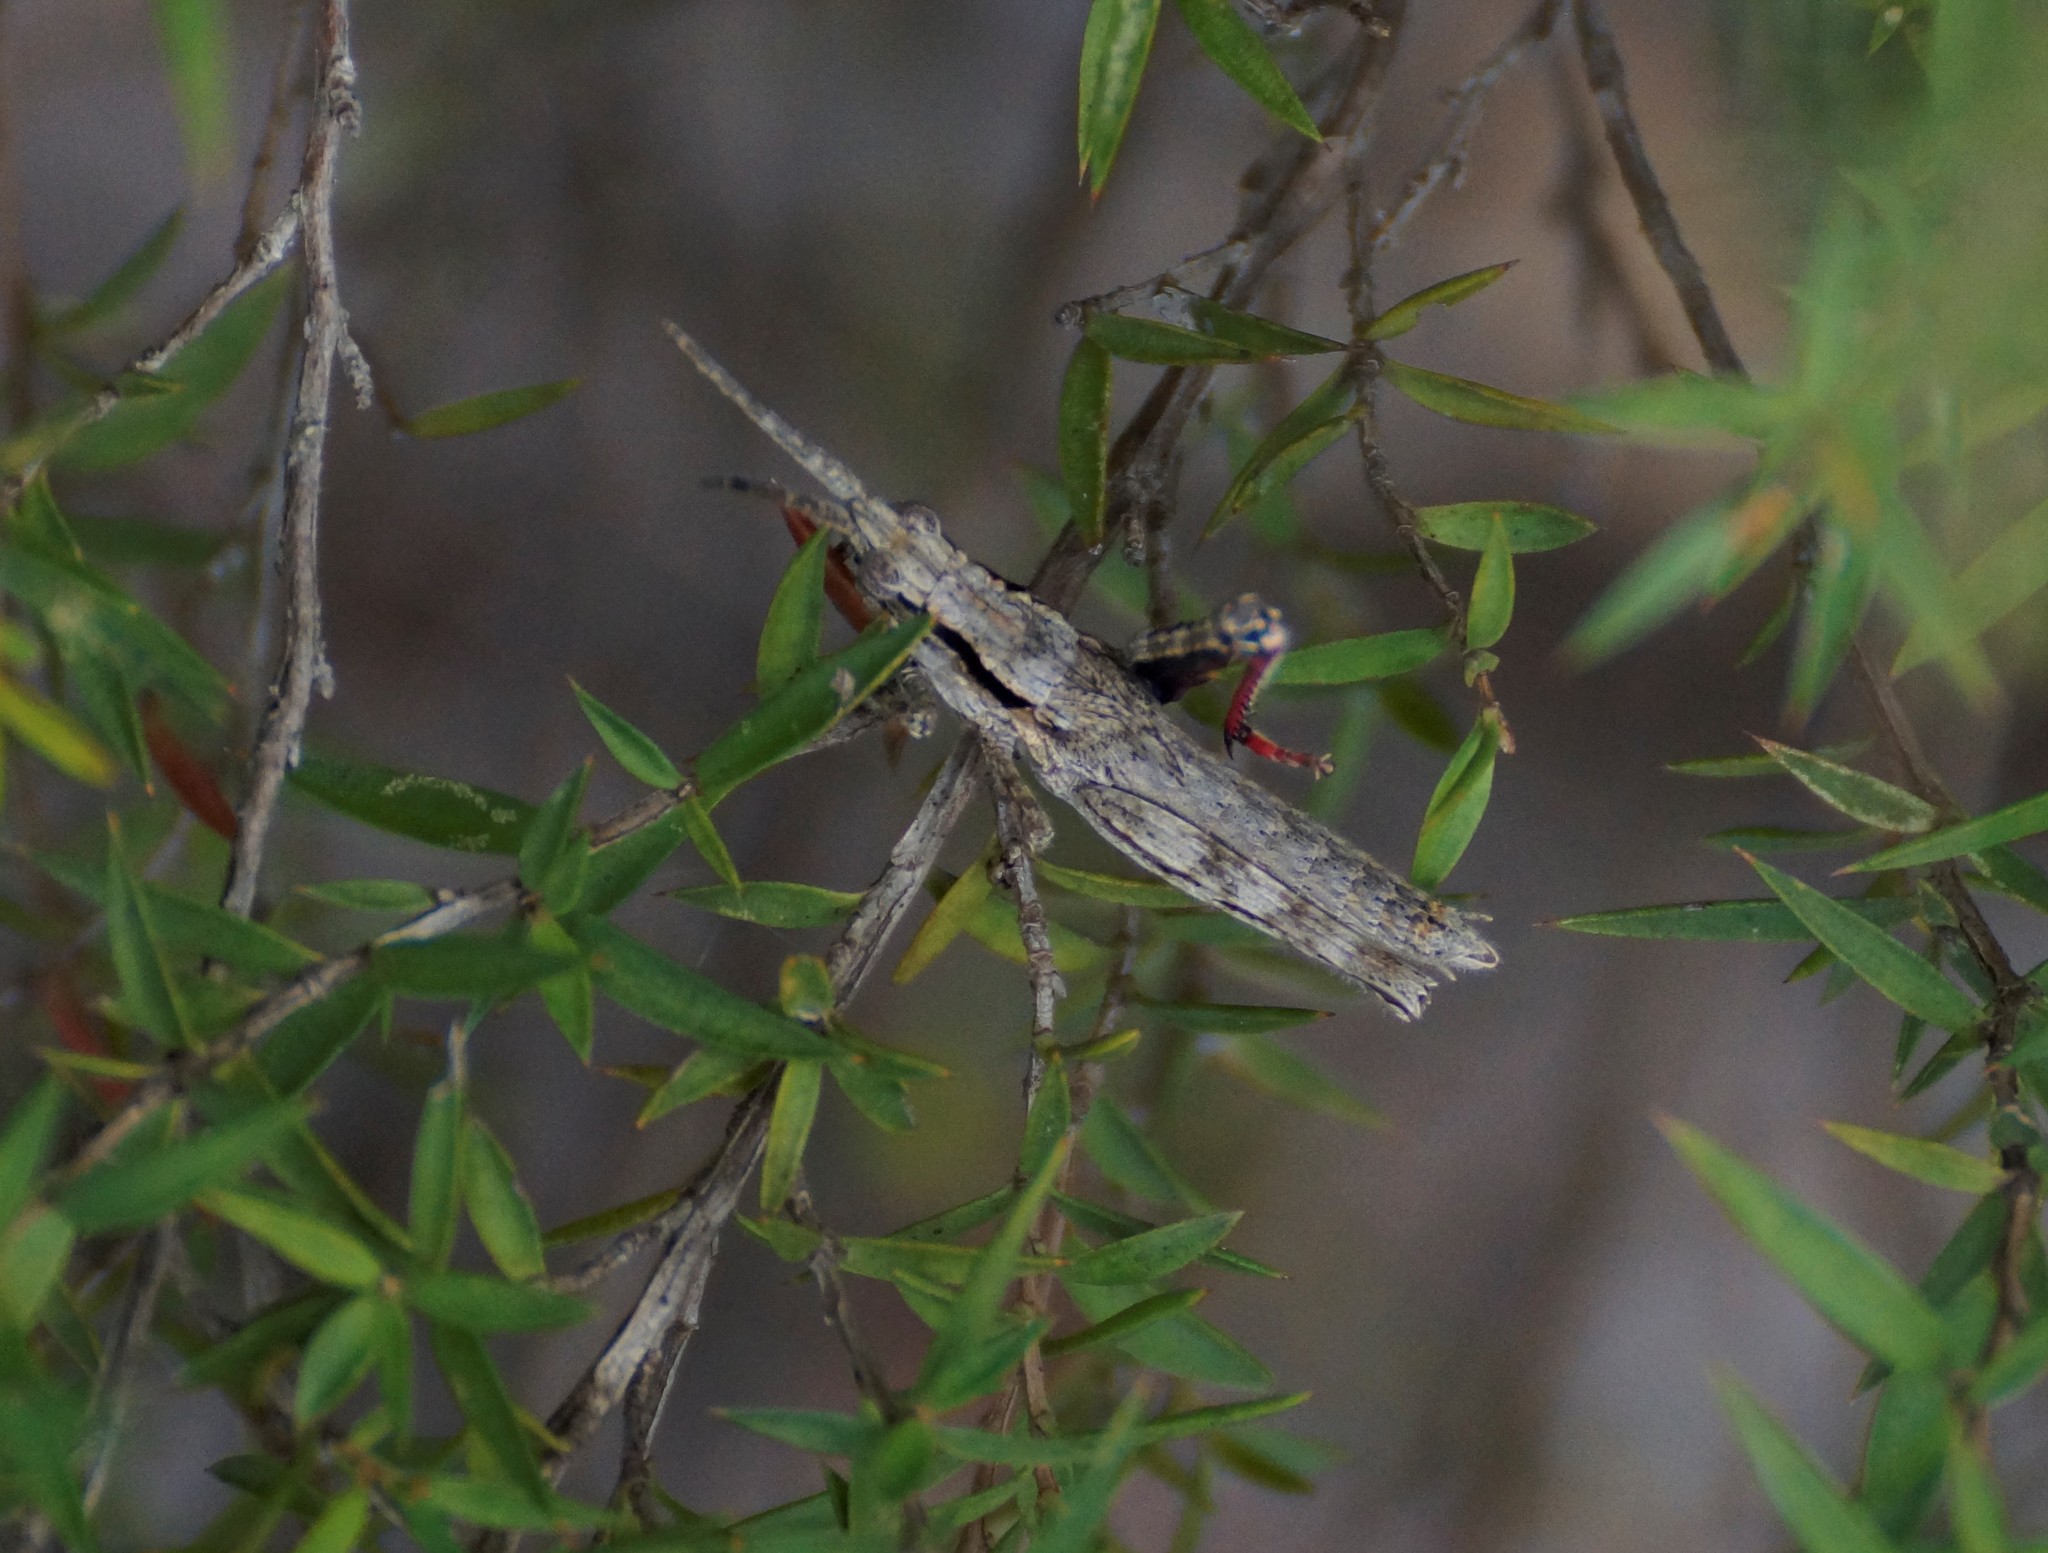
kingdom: Animalia
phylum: Arthropoda
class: Insecta
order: Orthoptera
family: Acrididae
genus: Coryphistes
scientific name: Coryphistes ruricola
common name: Bark-mimicking grasshopper
